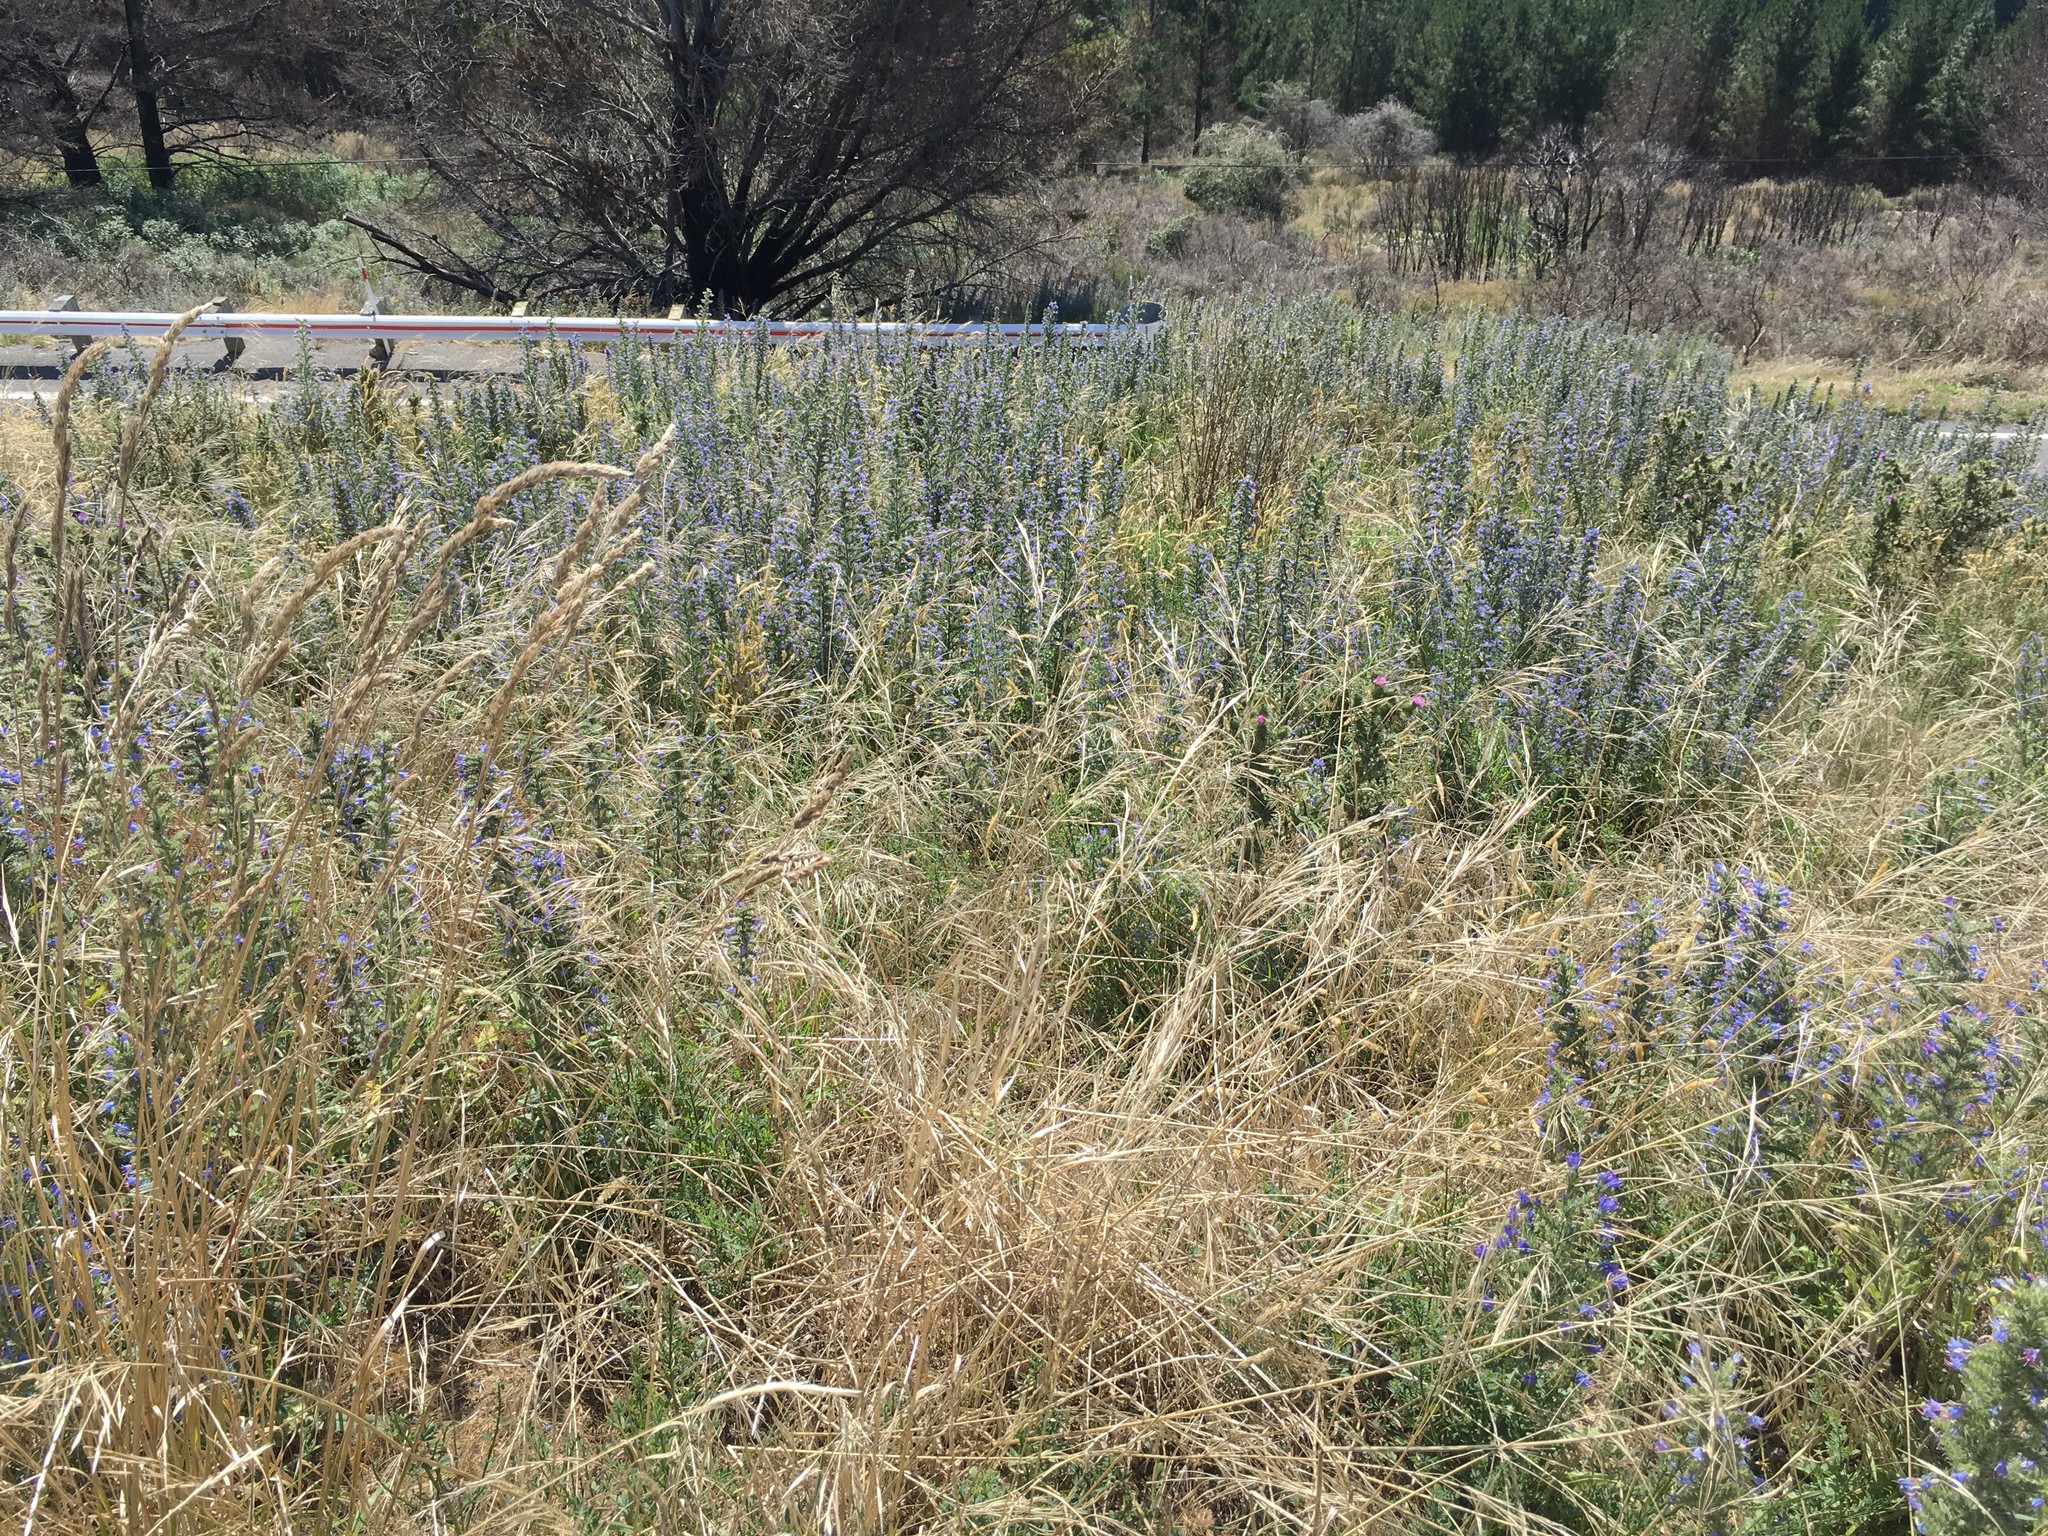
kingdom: Plantae
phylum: Tracheophyta
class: Magnoliopsida
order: Boraginales
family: Boraginaceae
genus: Echium
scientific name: Echium vulgare
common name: Common viper's bugloss
